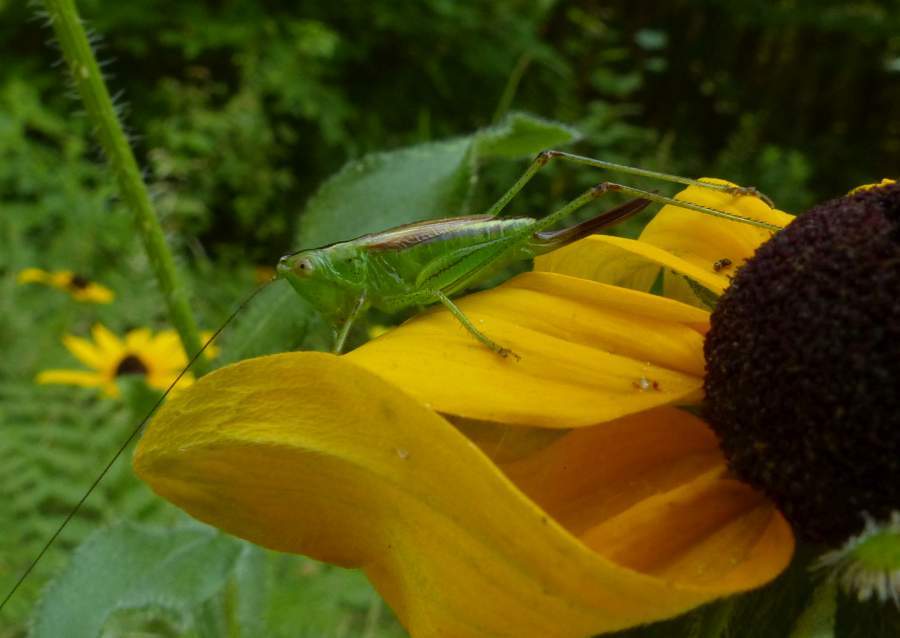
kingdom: Animalia
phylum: Arthropoda
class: Insecta
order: Orthoptera
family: Tettigoniidae
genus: Conocephalus
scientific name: Conocephalus brevipennis
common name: Short-winged meadow katydid
